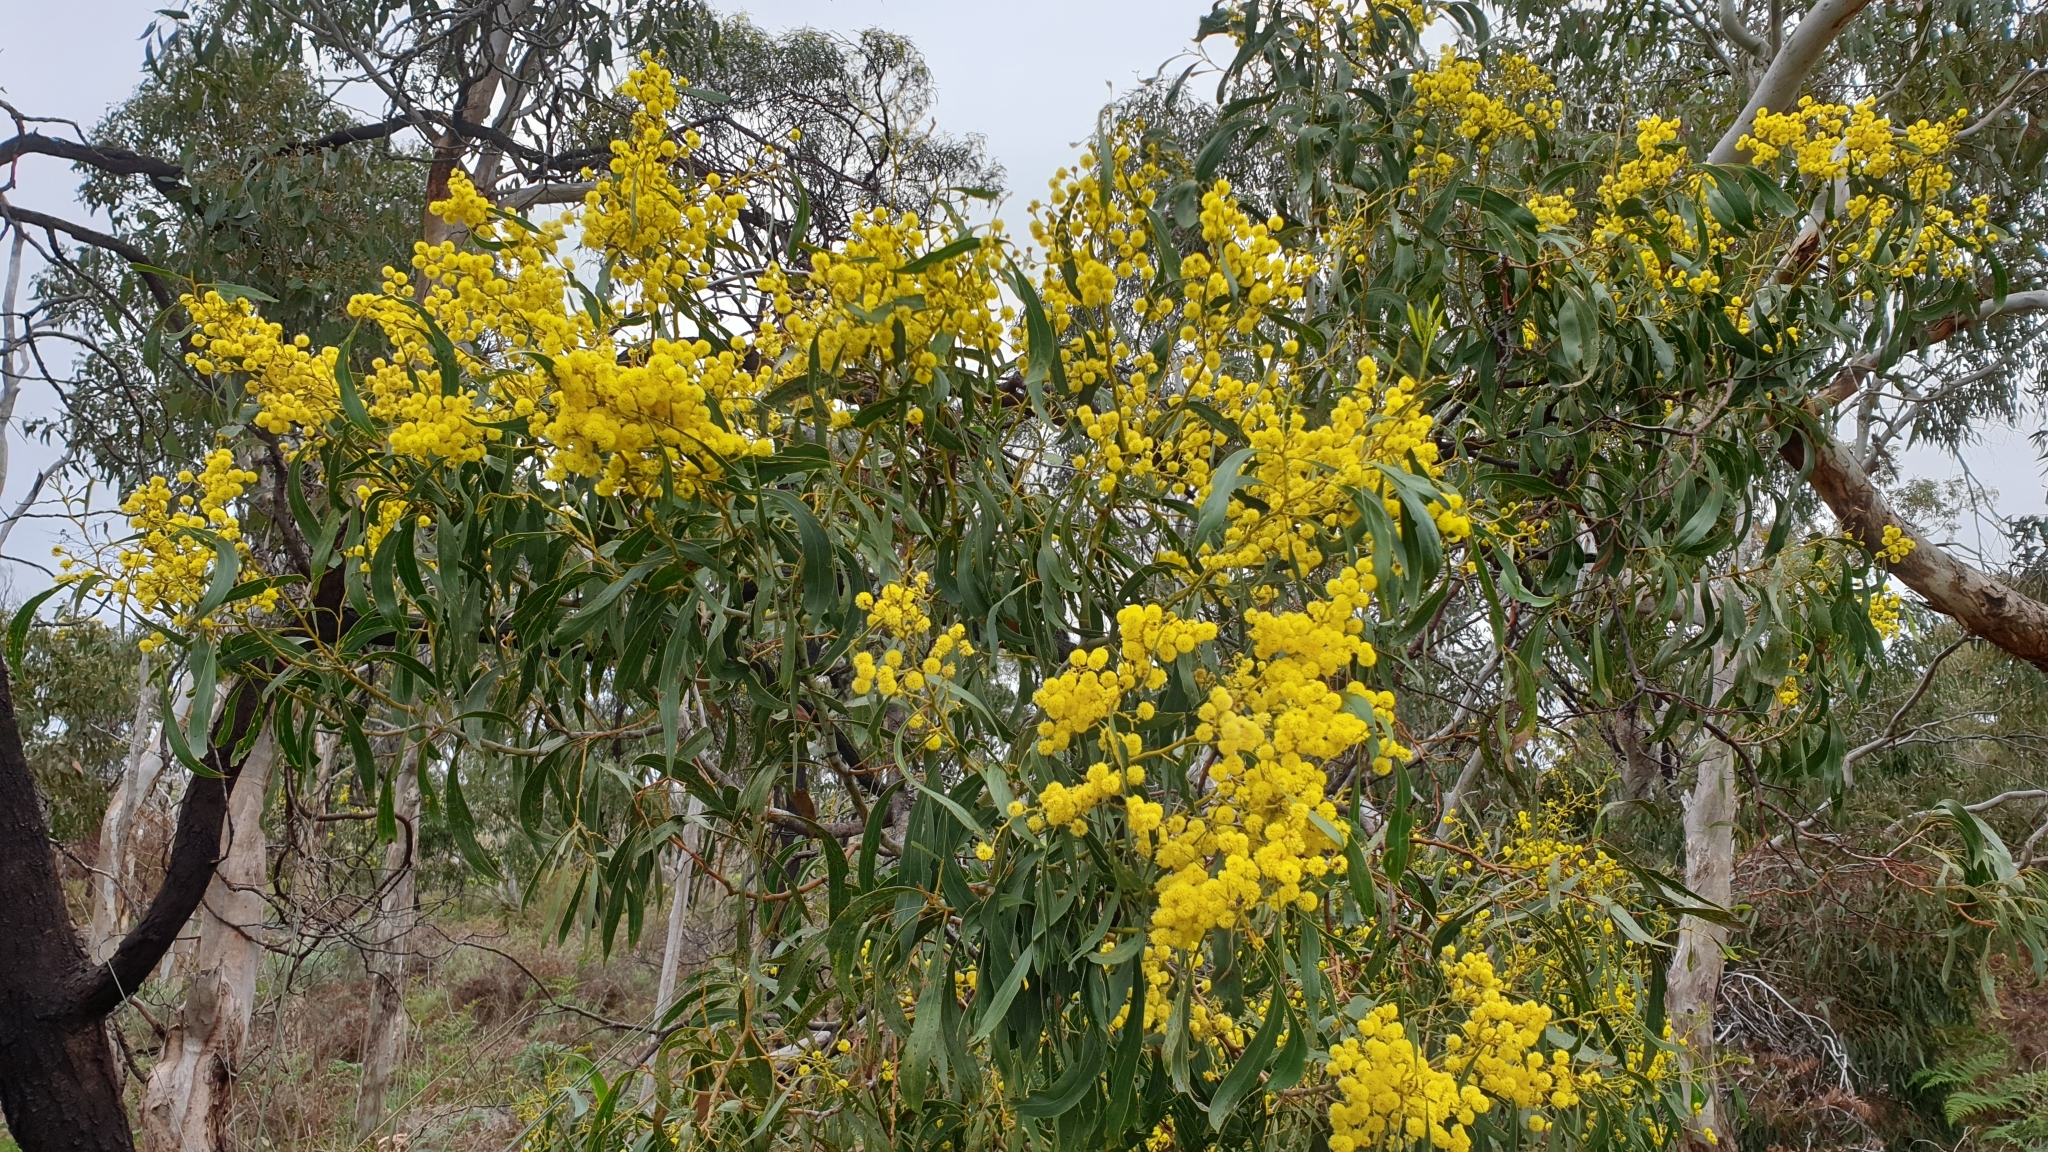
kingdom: Plantae
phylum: Tracheophyta
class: Magnoliopsida
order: Fabales
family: Fabaceae
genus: Acacia
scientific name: Acacia pycnantha
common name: Golden wattle
